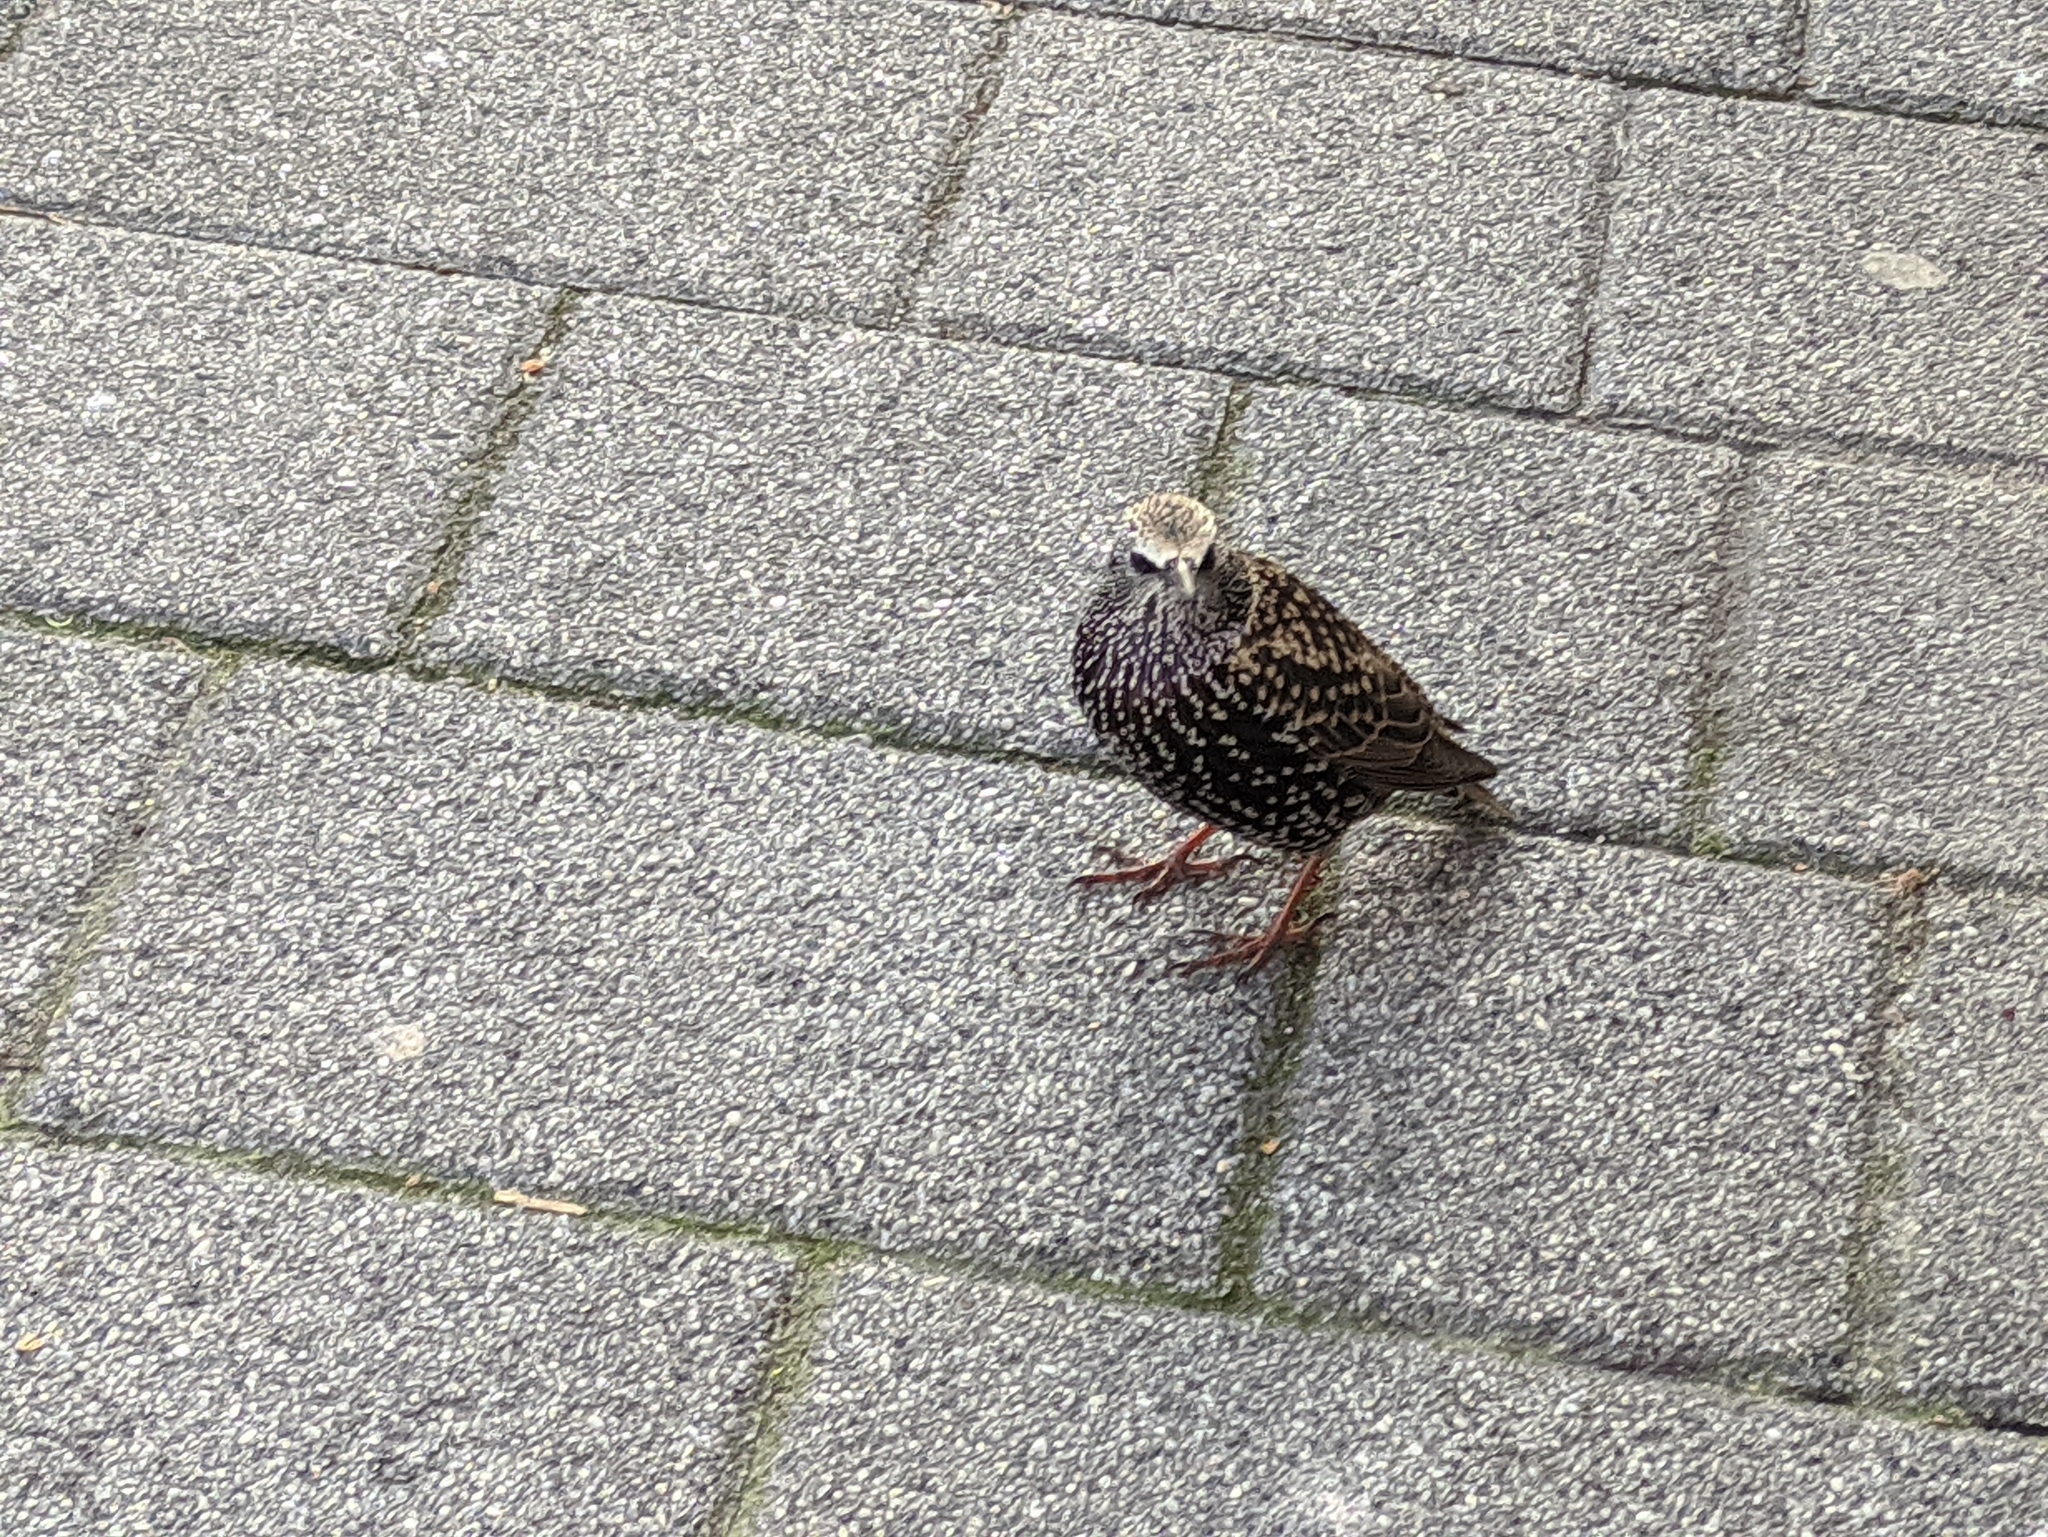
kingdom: Animalia
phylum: Chordata
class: Aves
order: Passeriformes
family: Sturnidae
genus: Sturnus
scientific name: Sturnus vulgaris
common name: Common starling
